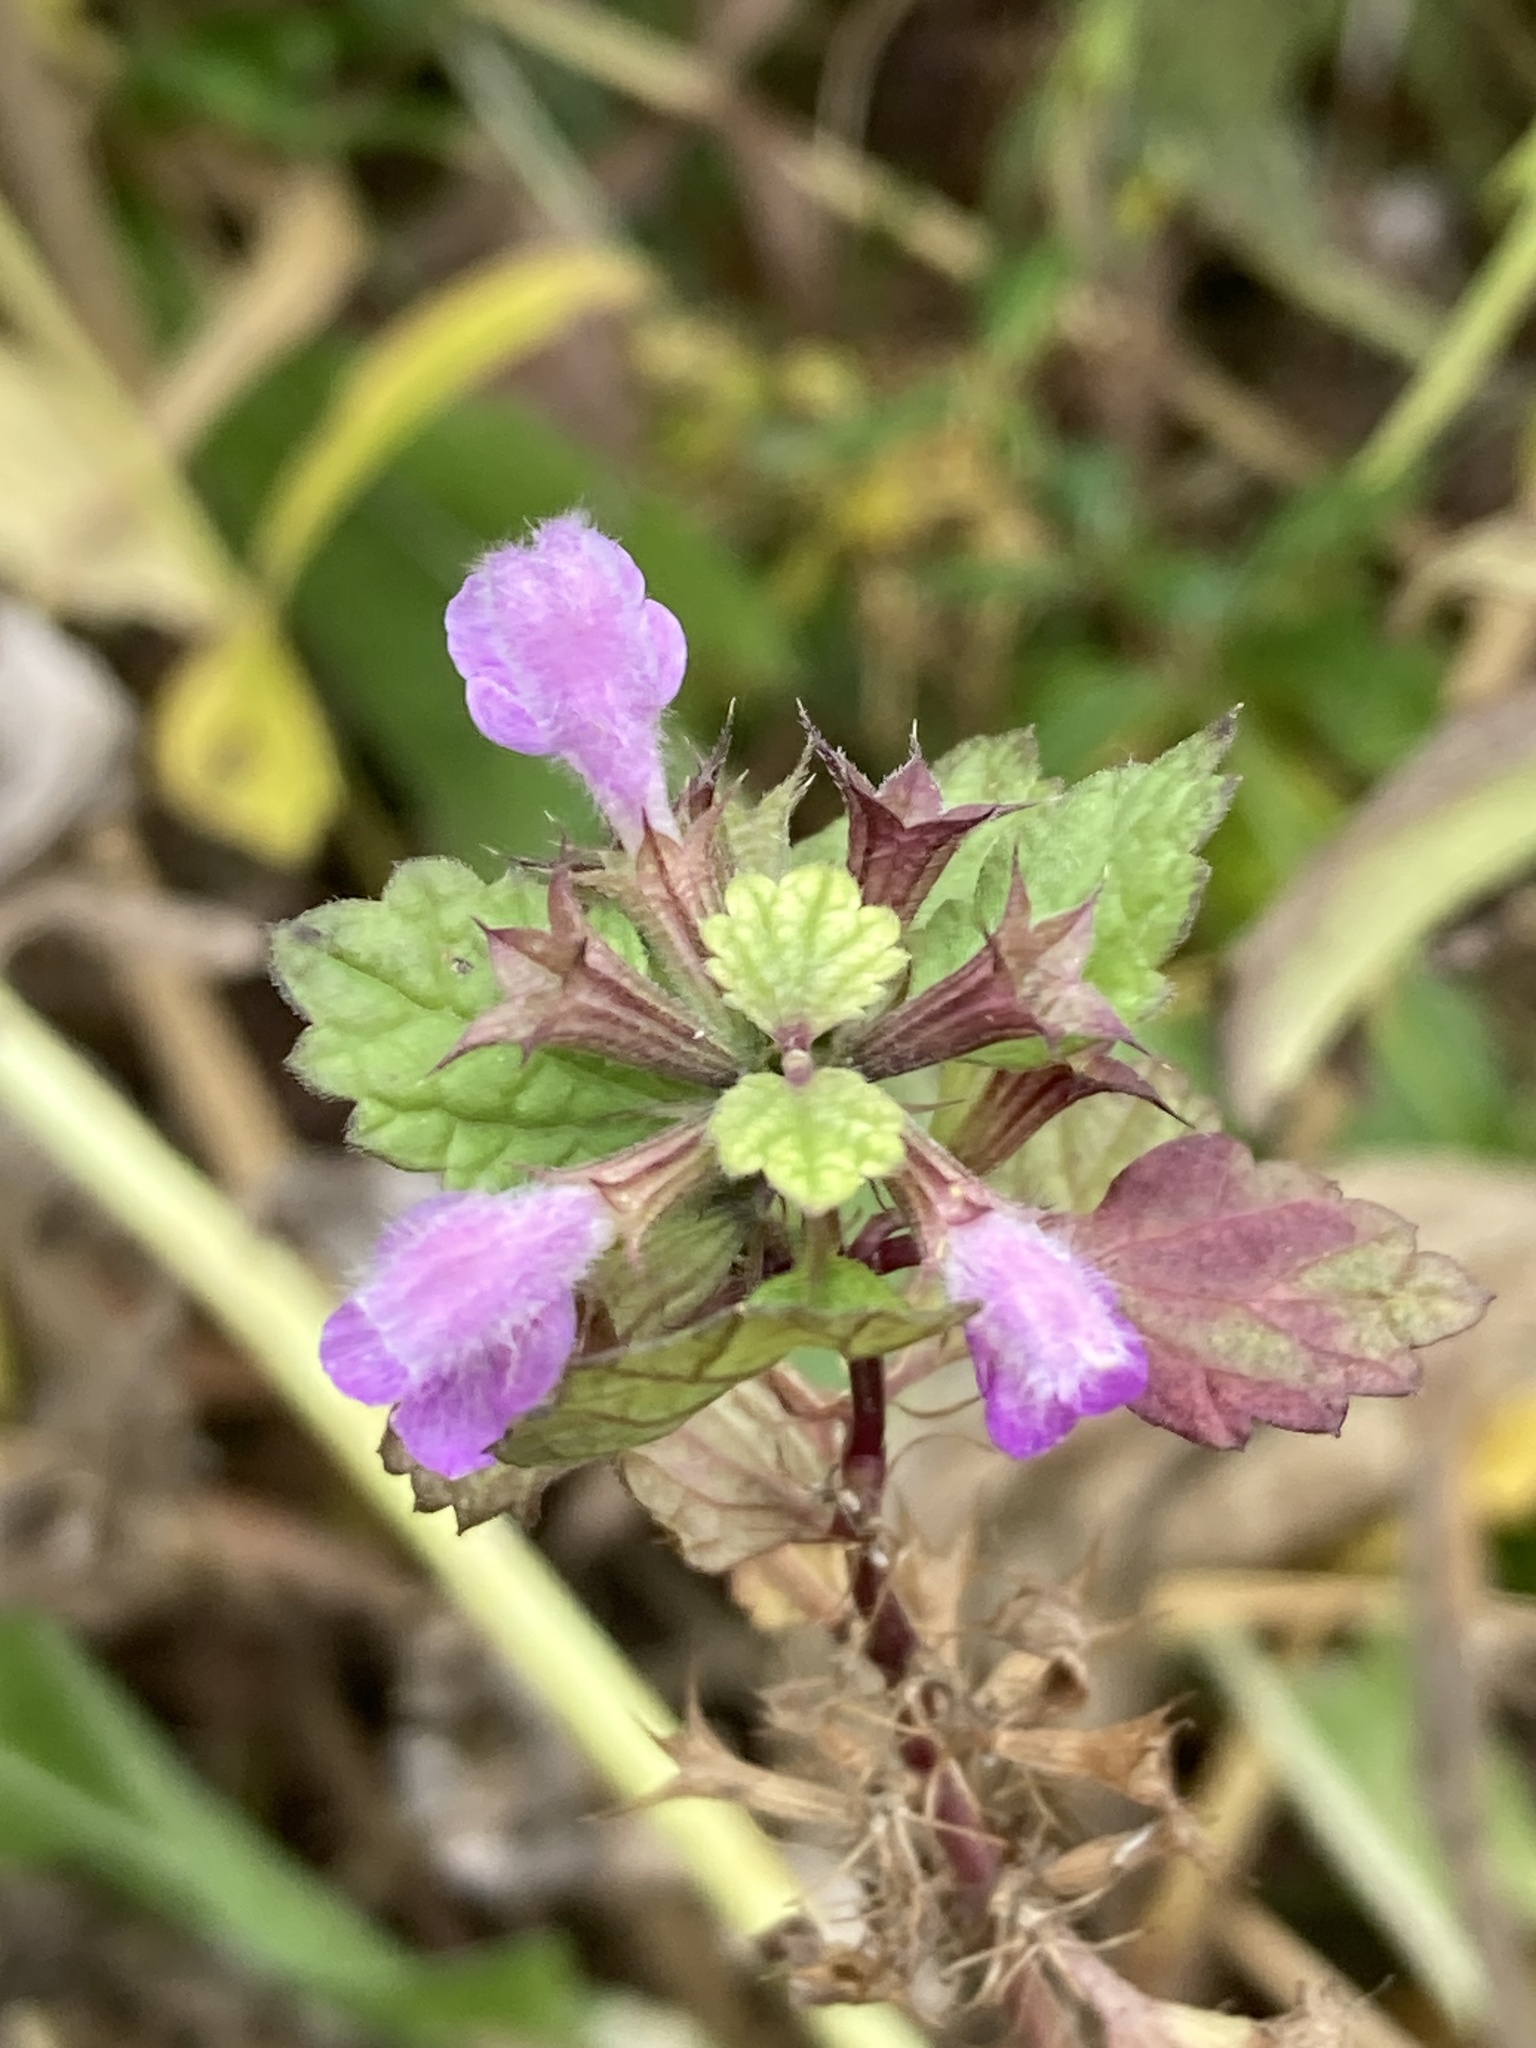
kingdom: Plantae
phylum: Tracheophyta
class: Magnoliopsida
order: Lamiales
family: Lamiaceae
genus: Ballota
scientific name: Ballota nigra
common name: Black horehound
